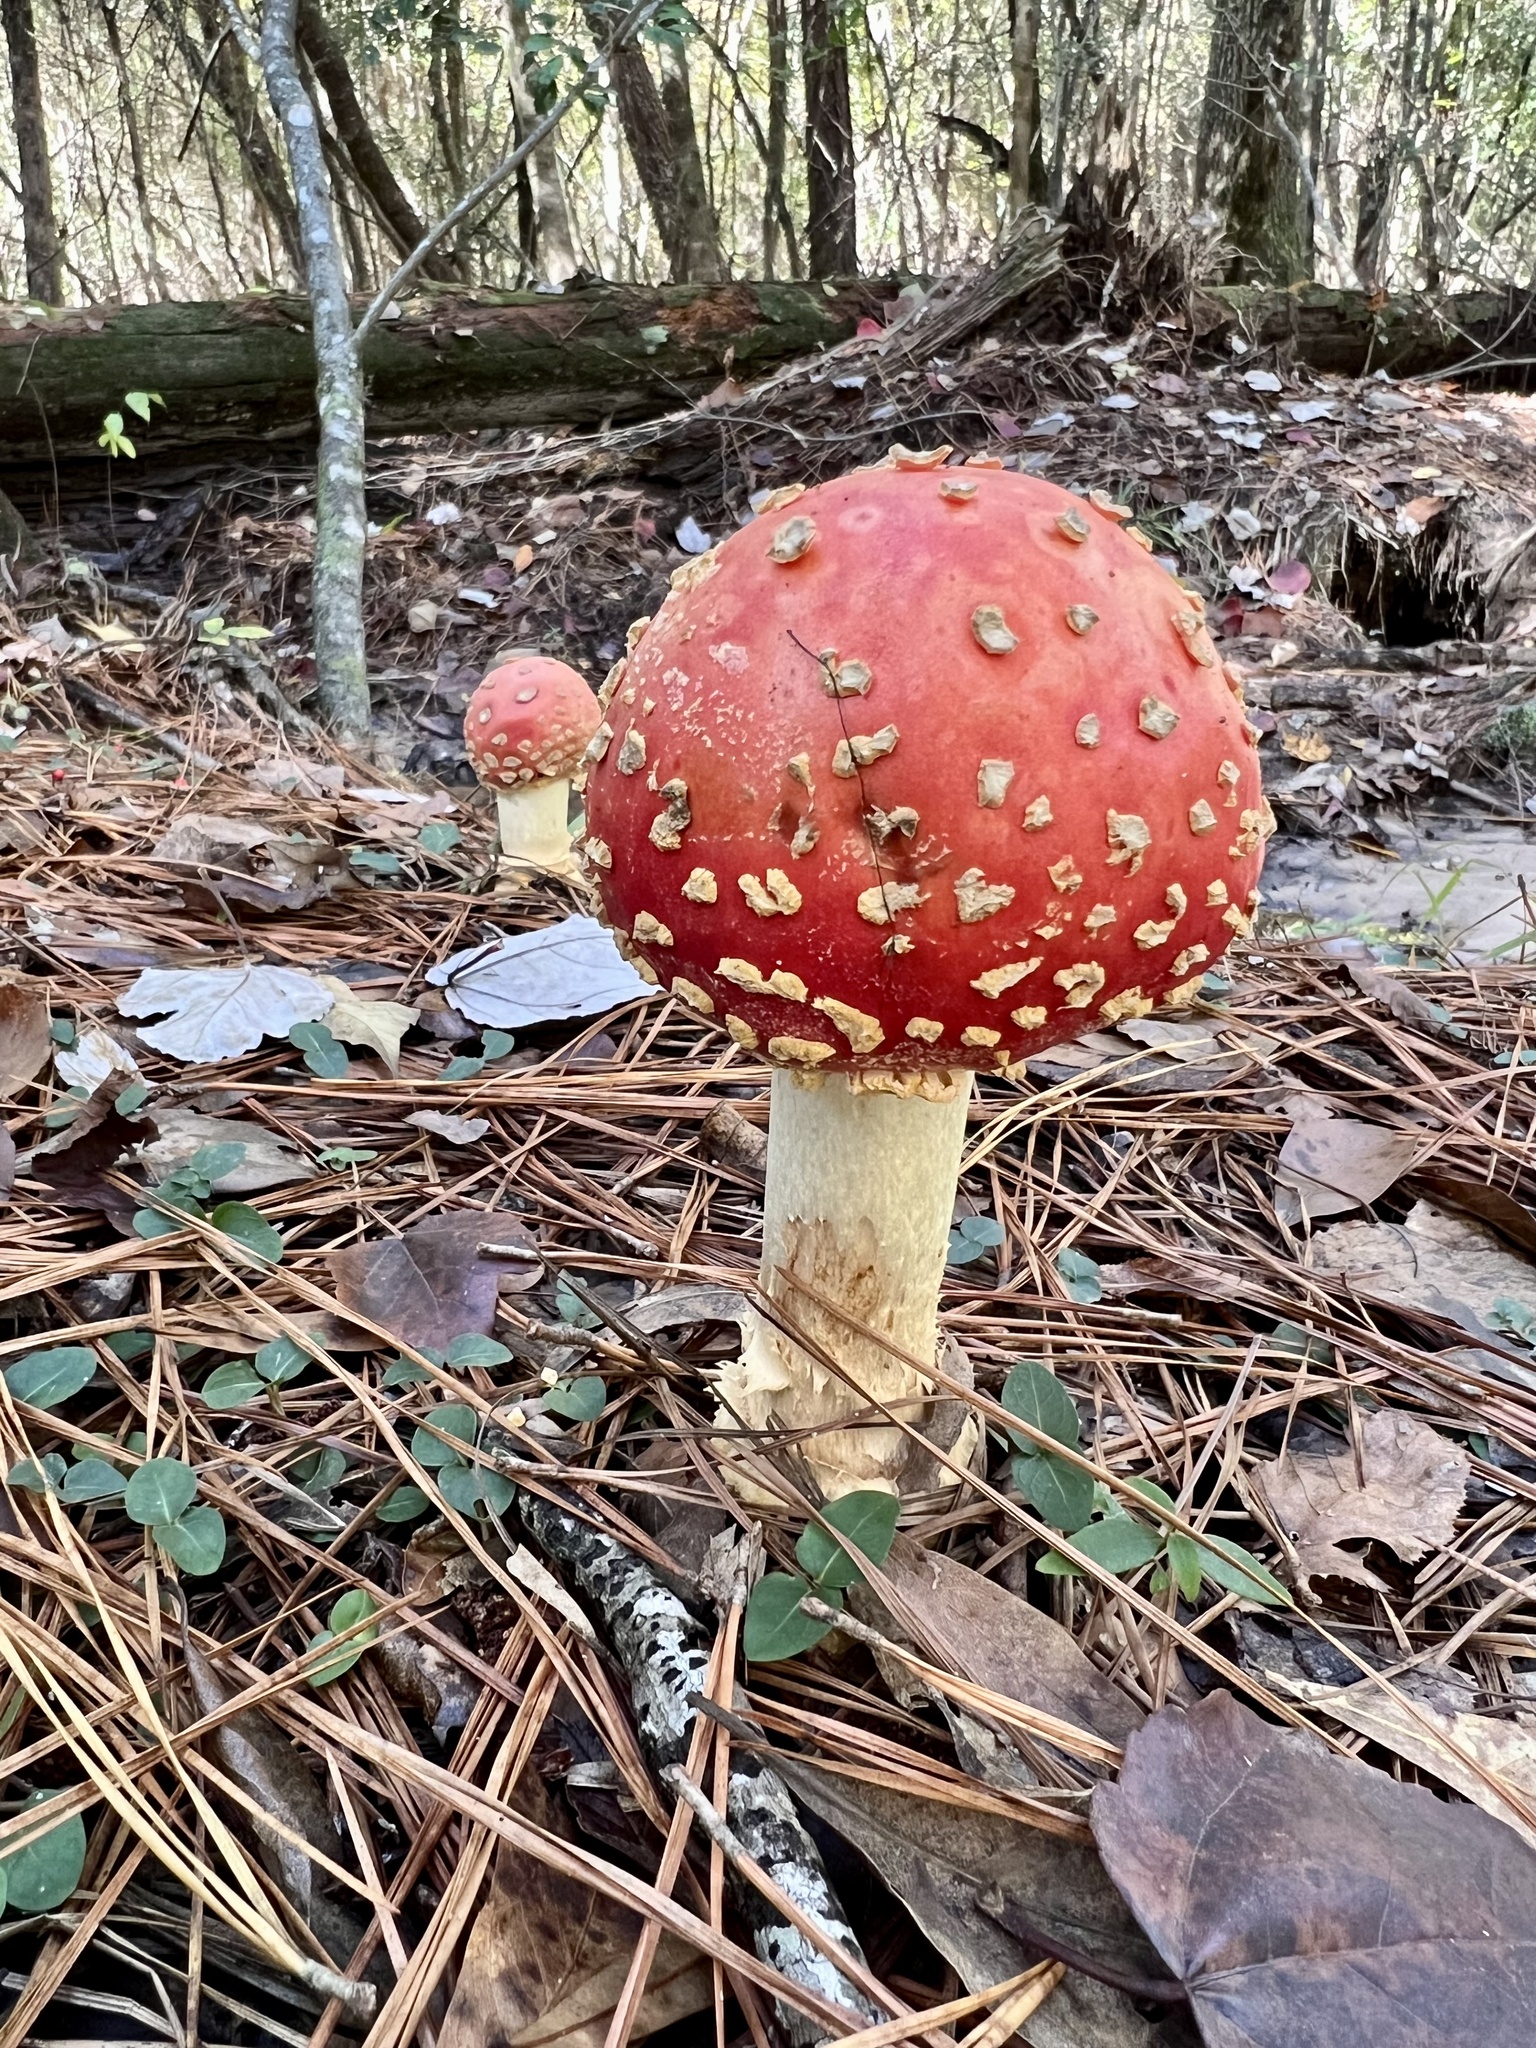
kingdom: Fungi
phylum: Basidiomycota
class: Agaricomycetes
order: Agaricales
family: Amanitaceae
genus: Amanita
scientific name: Amanita persicina
